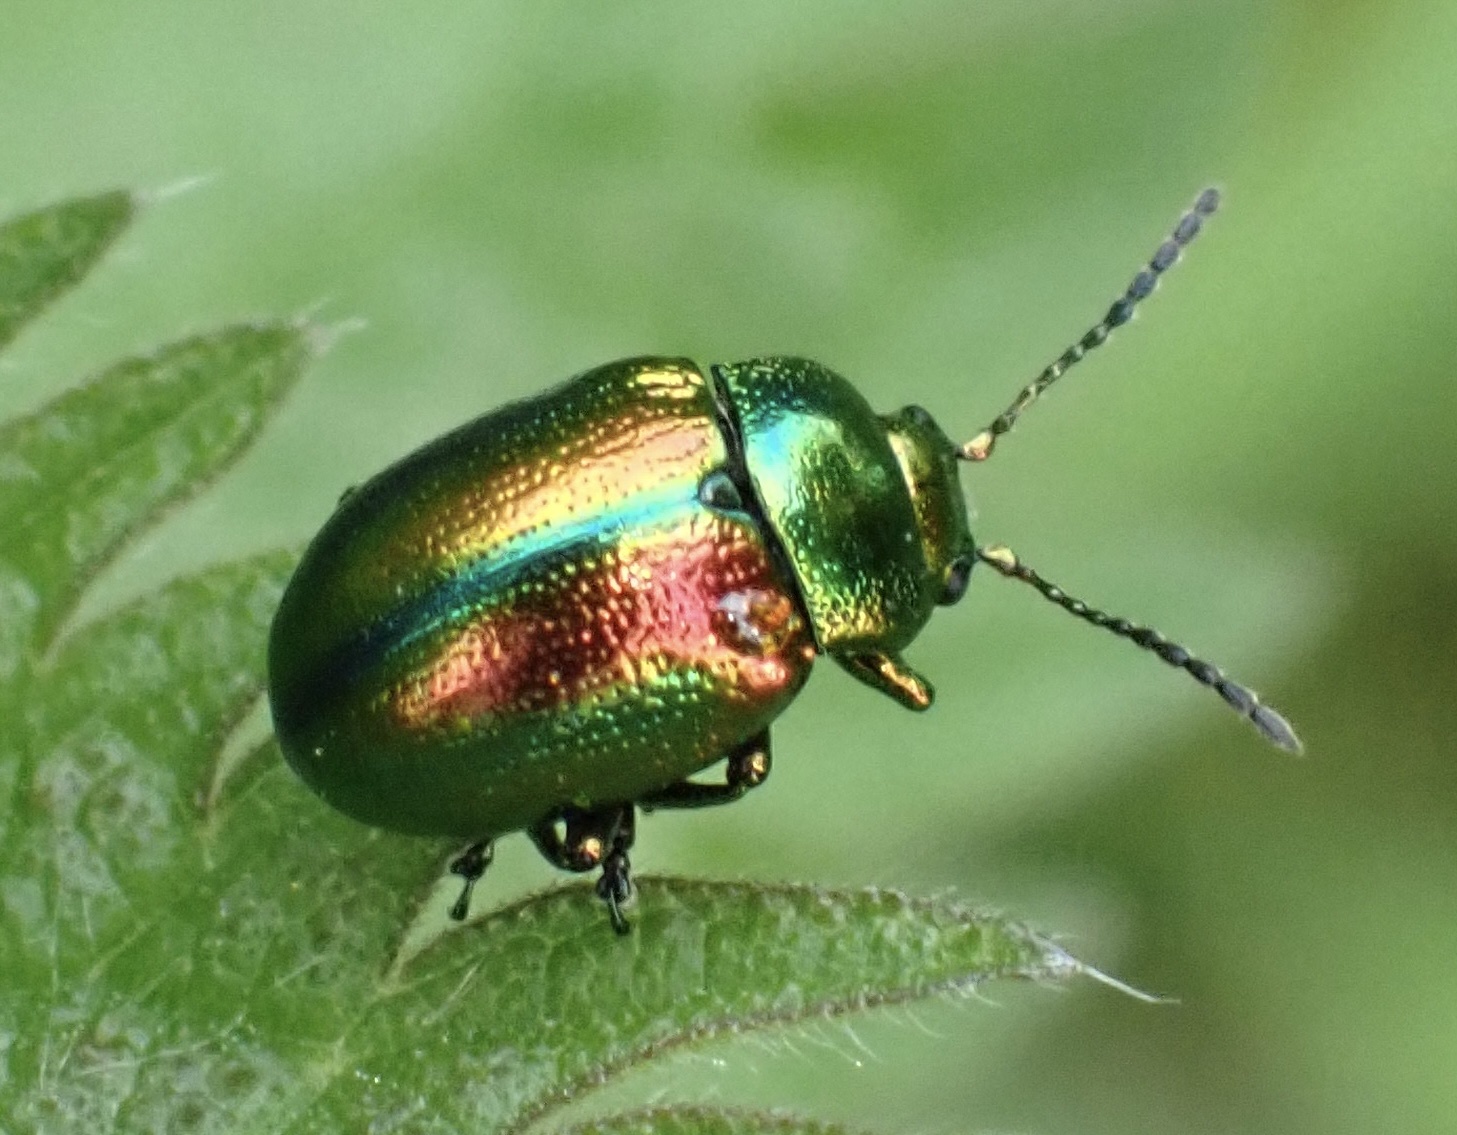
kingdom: Animalia
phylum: Arthropoda
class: Insecta
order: Coleoptera
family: Chrysomelidae
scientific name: Chrysomelidae
